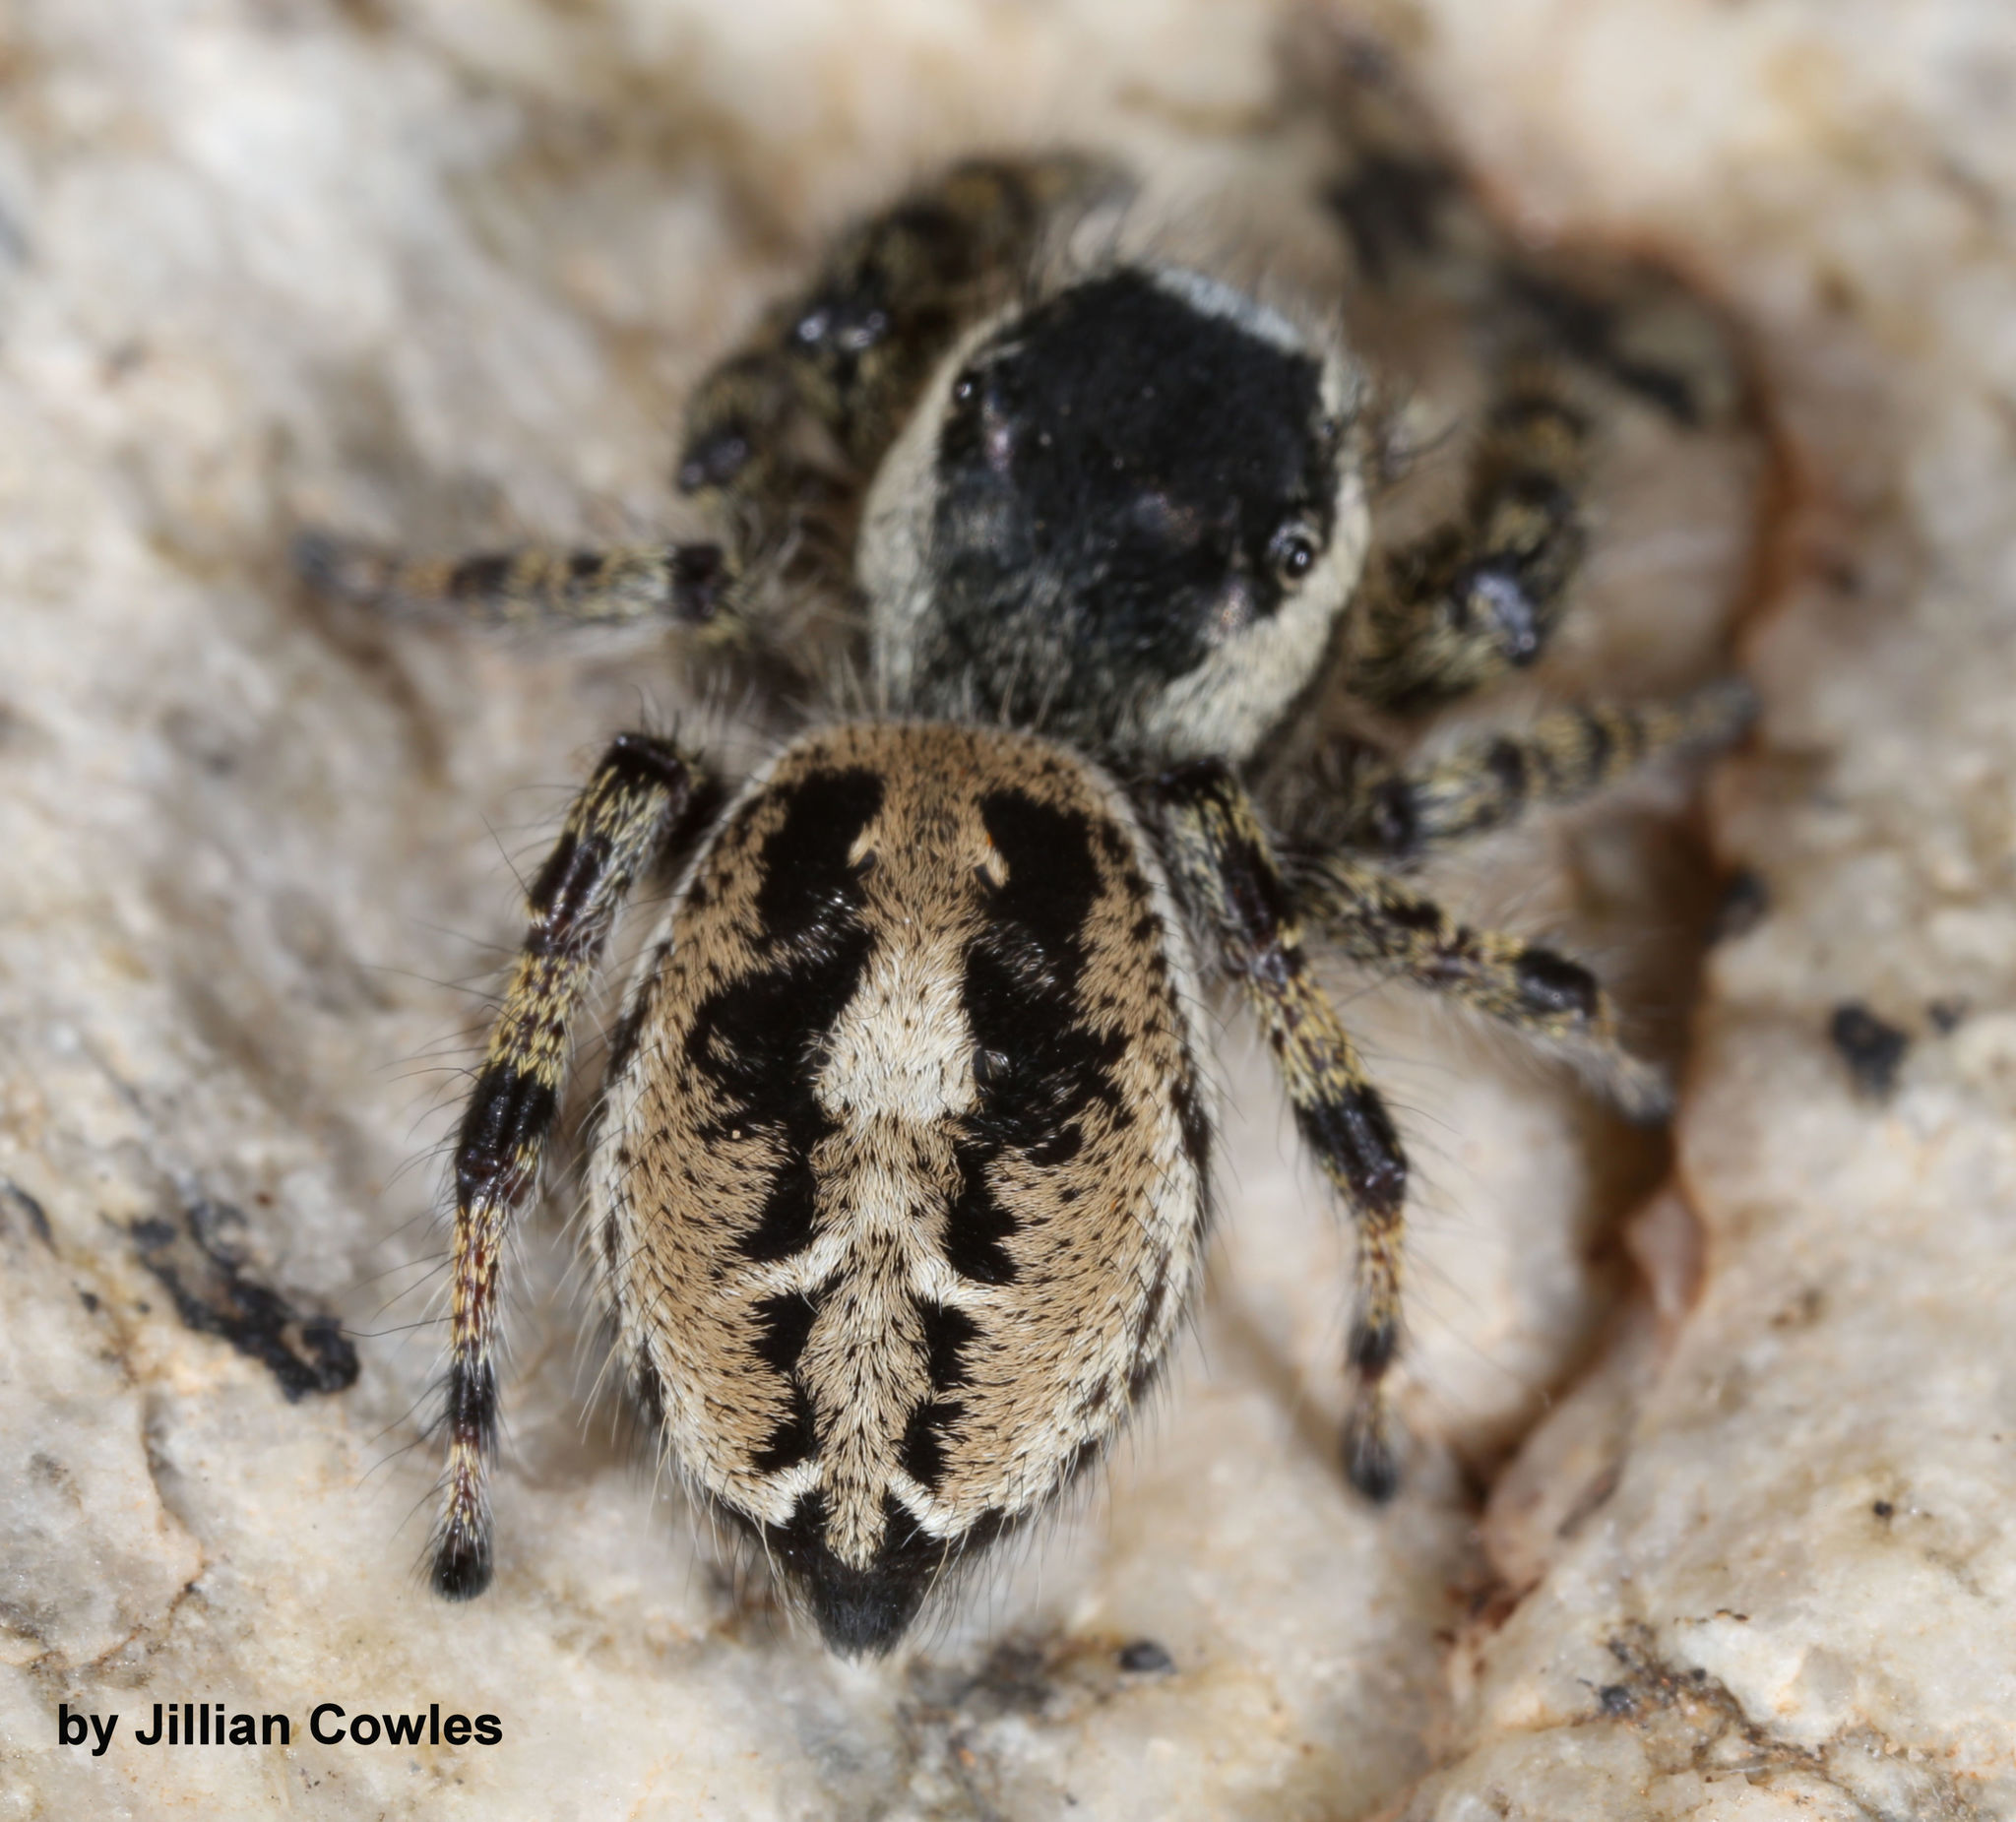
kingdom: Animalia
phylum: Arthropoda
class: Arachnida
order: Araneae
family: Salticidae
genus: Phidippus
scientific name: Phidippus tyrrelli
